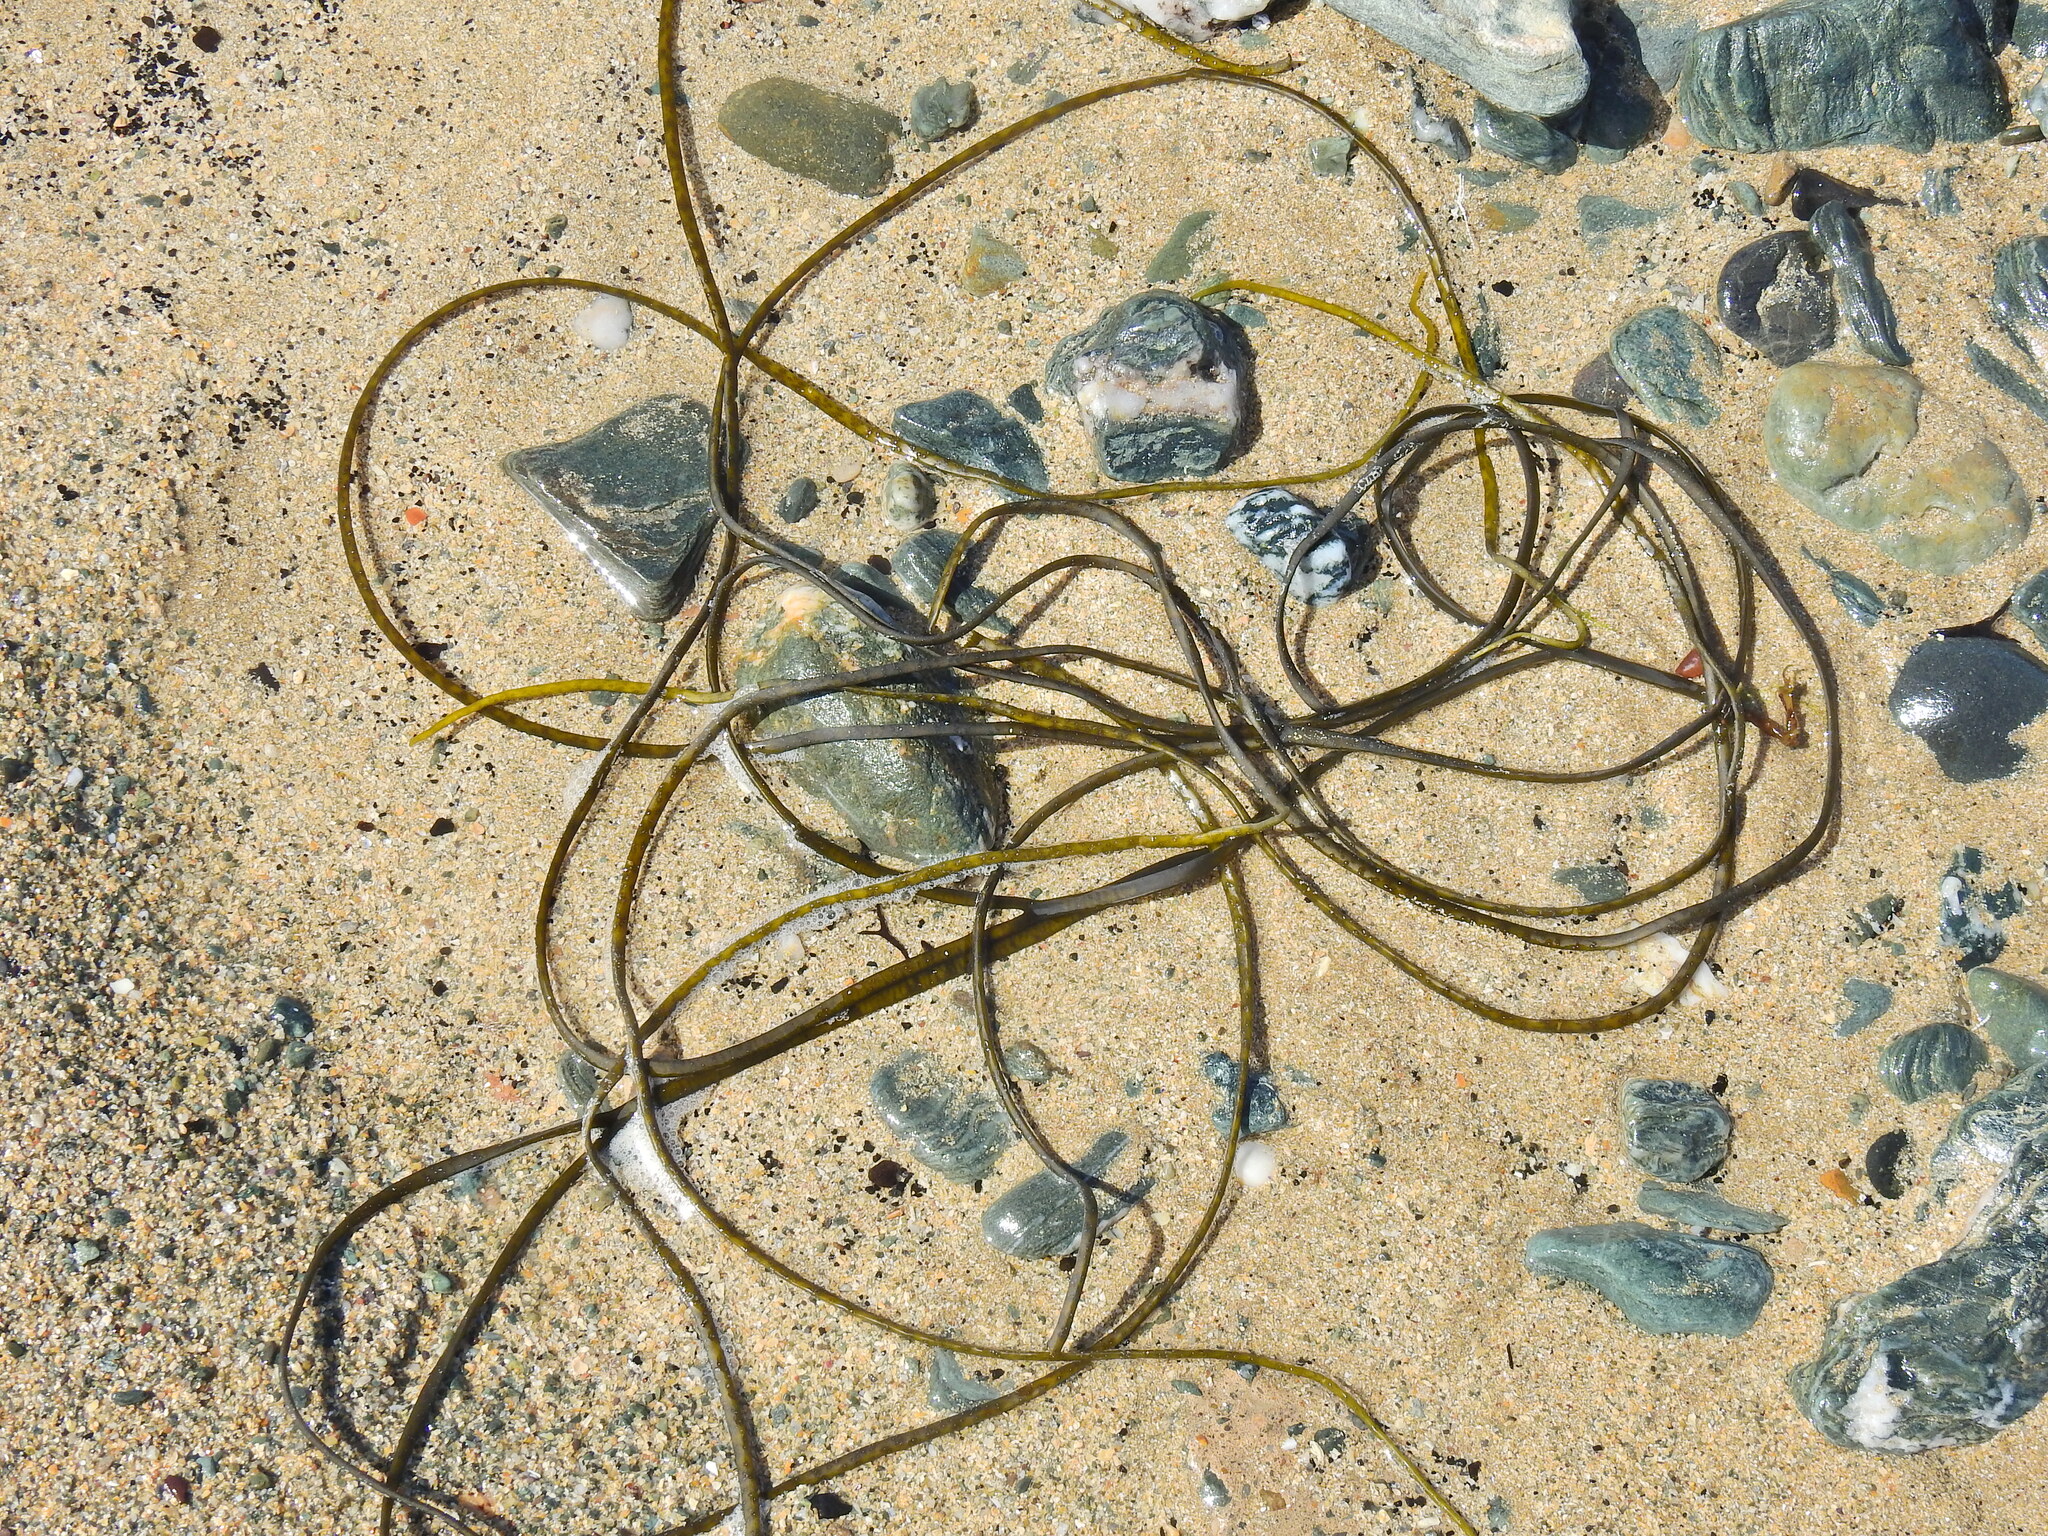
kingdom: Chromista
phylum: Ochrophyta
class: Phaeophyceae
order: Fucales
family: Himanthaliaceae
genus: Himanthalia
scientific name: Himanthalia elongata
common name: Sea-thong
